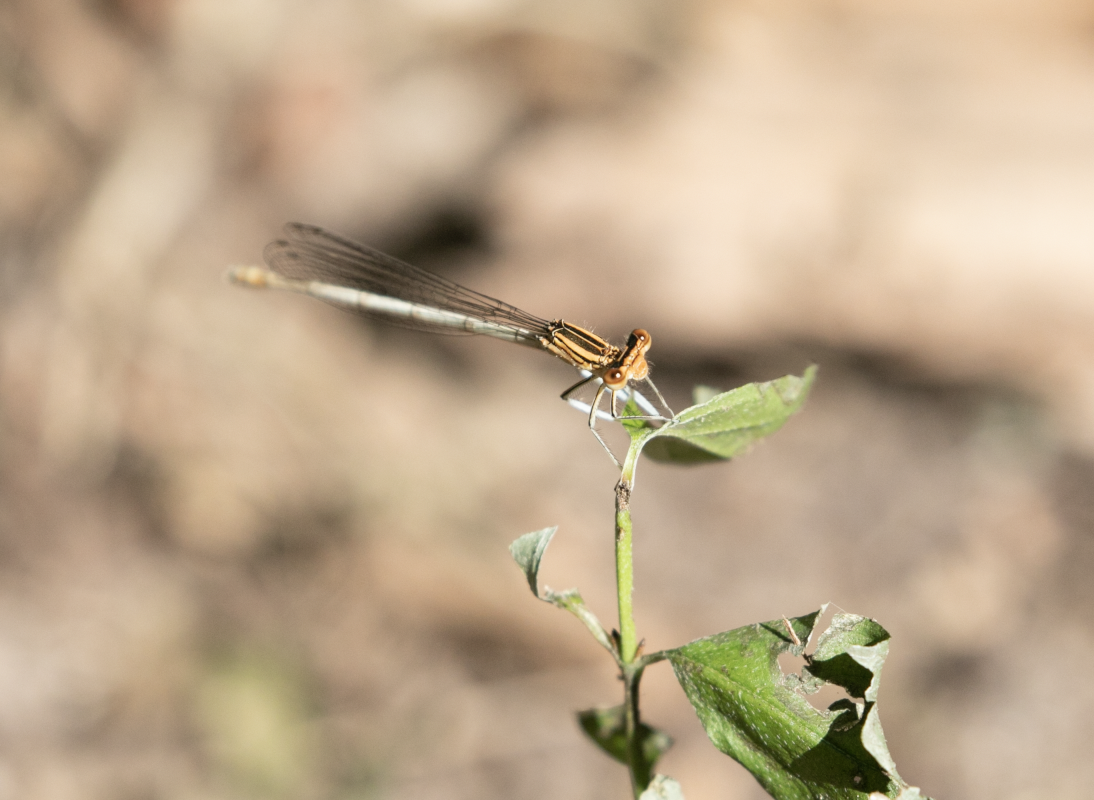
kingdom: Animalia
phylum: Arthropoda
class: Insecta
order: Odonata
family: Platycnemididae
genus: Platycnemis
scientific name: Platycnemis pennipes
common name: White-legged damselfly
